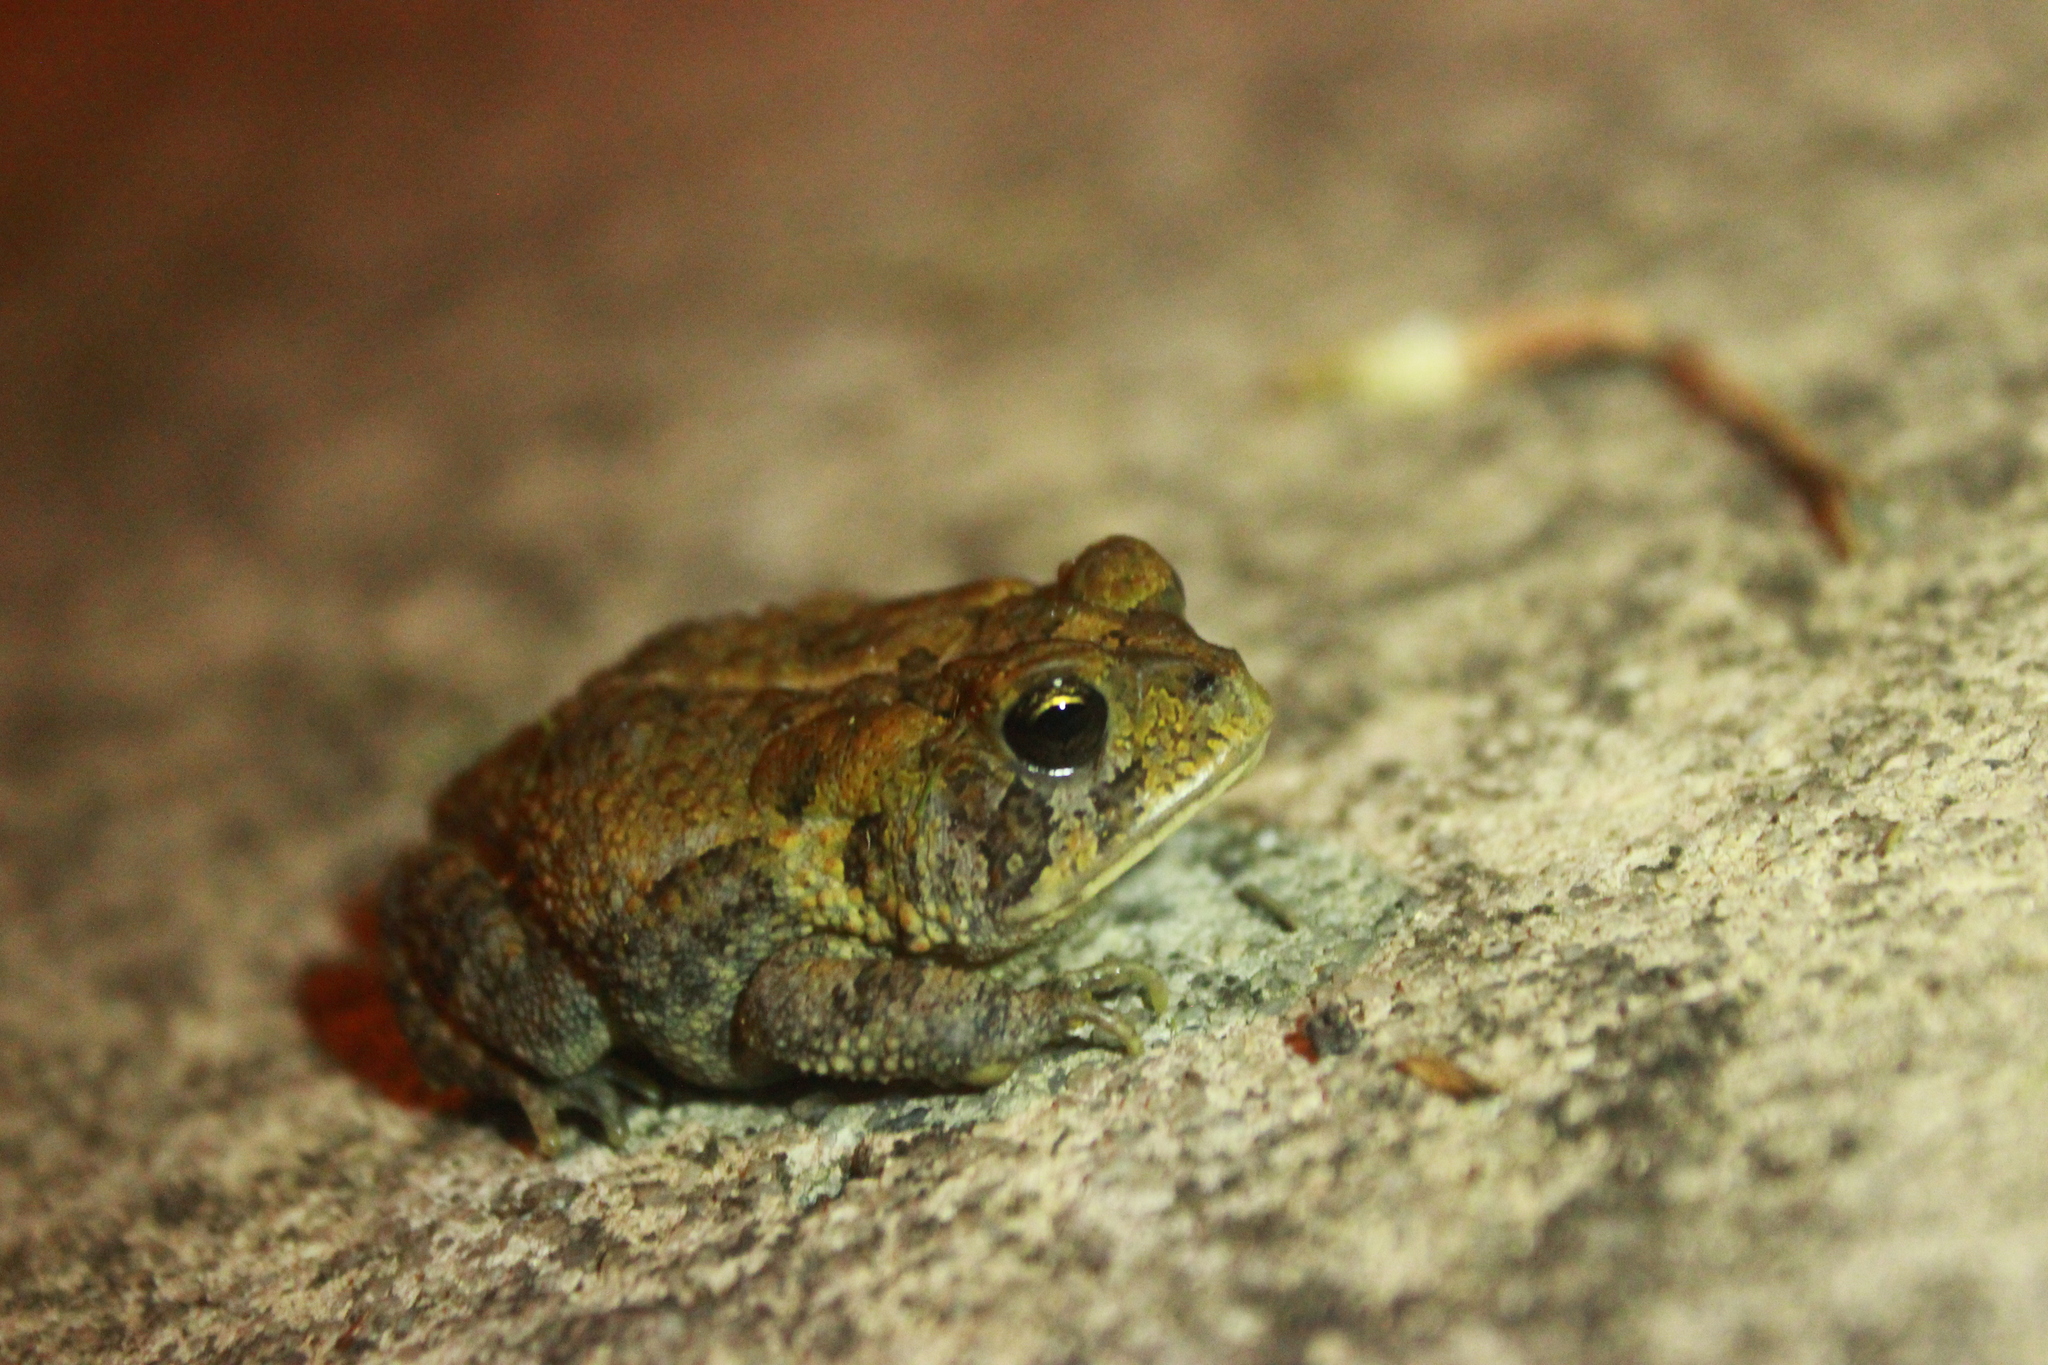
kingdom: Animalia
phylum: Chordata
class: Amphibia
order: Anura
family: Bufonidae
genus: Anaxyrus
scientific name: Anaxyrus terrestris
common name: Southern toad
